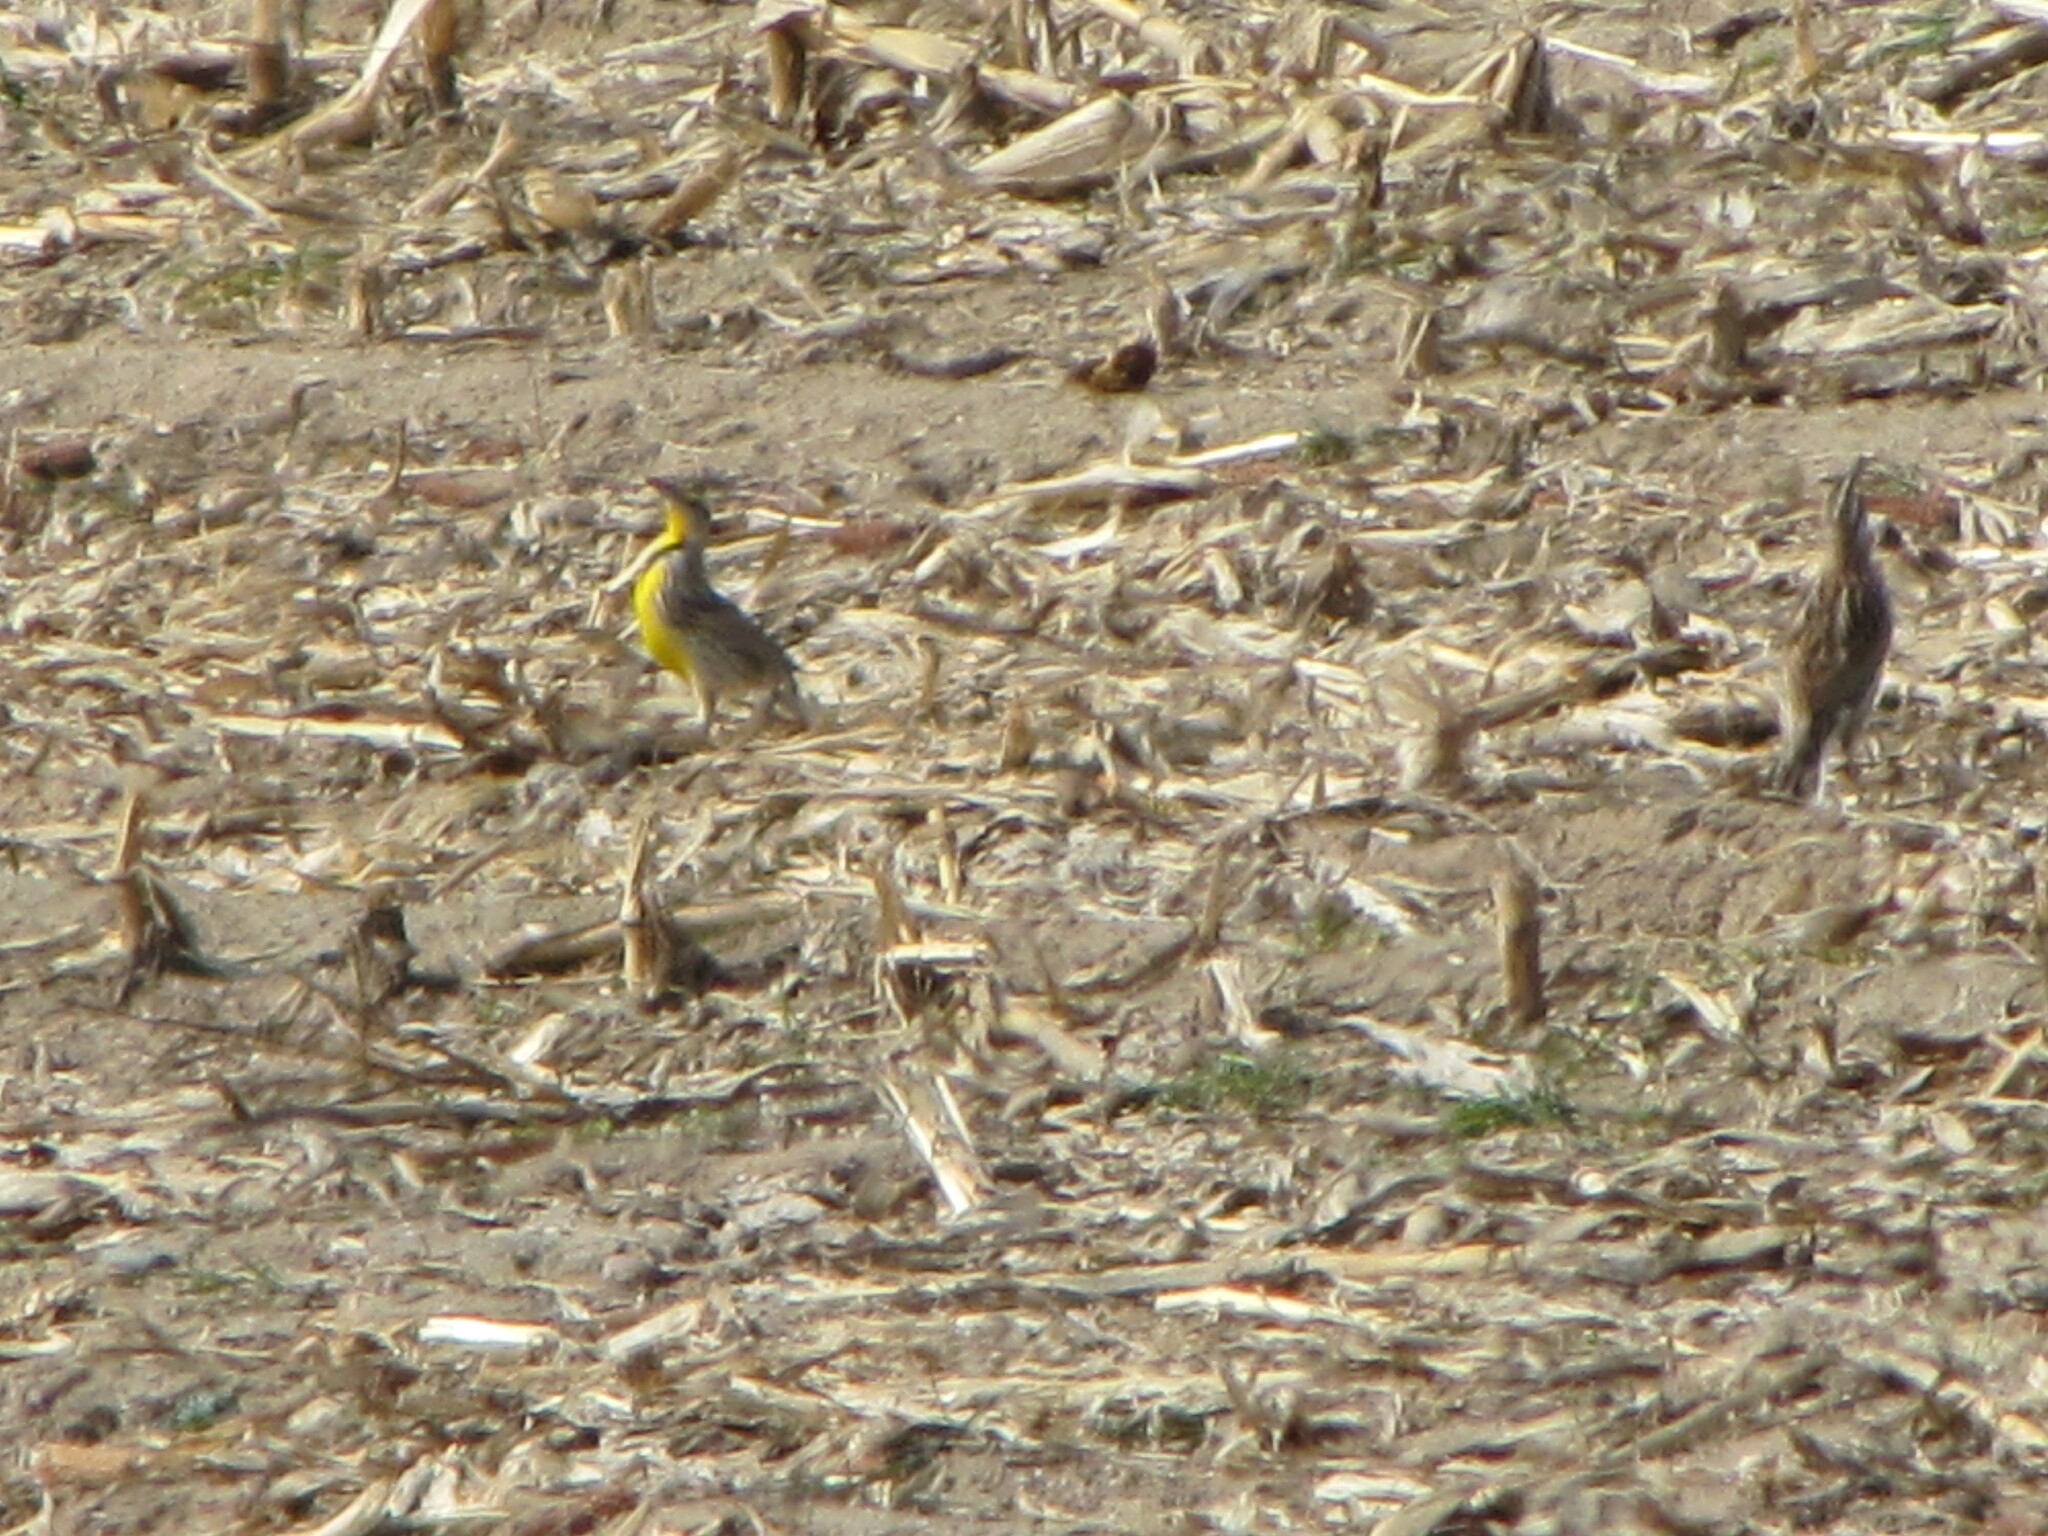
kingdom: Animalia
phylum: Chordata
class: Aves
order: Passeriformes
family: Icteridae
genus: Sturnella
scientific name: Sturnella magna
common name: Eastern meadowlark
